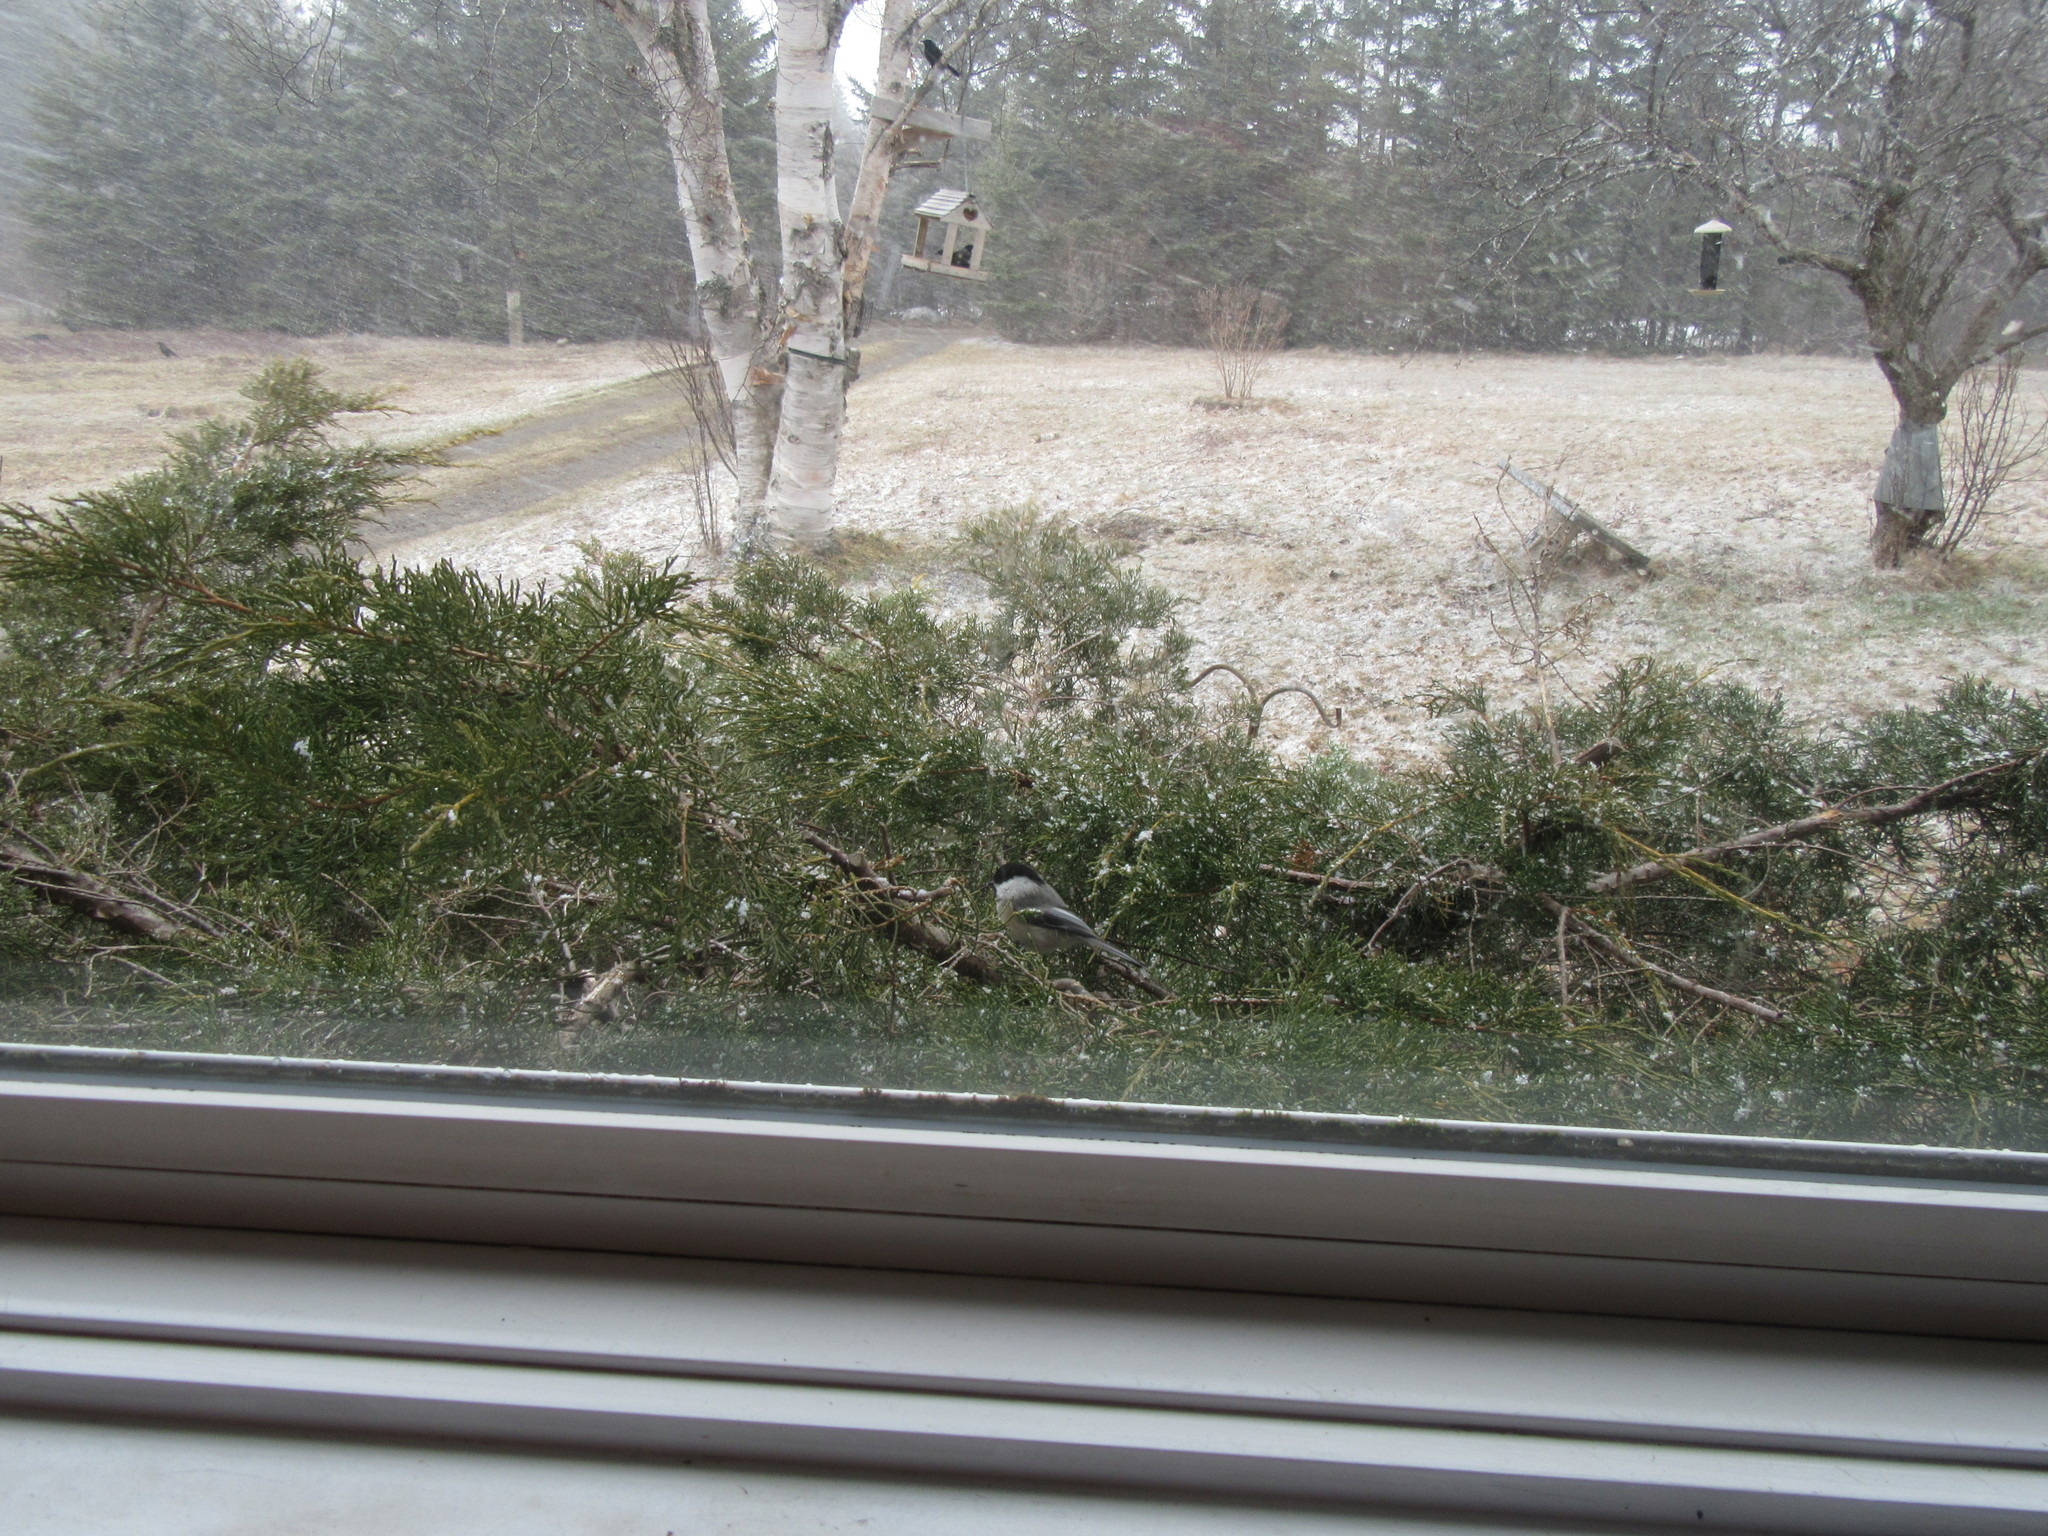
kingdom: Animalia
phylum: Chordata
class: Aves
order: Passeriformes
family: Paridae
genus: Poecile
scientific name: Poecile atricapillus
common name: Black-capped chickadee
